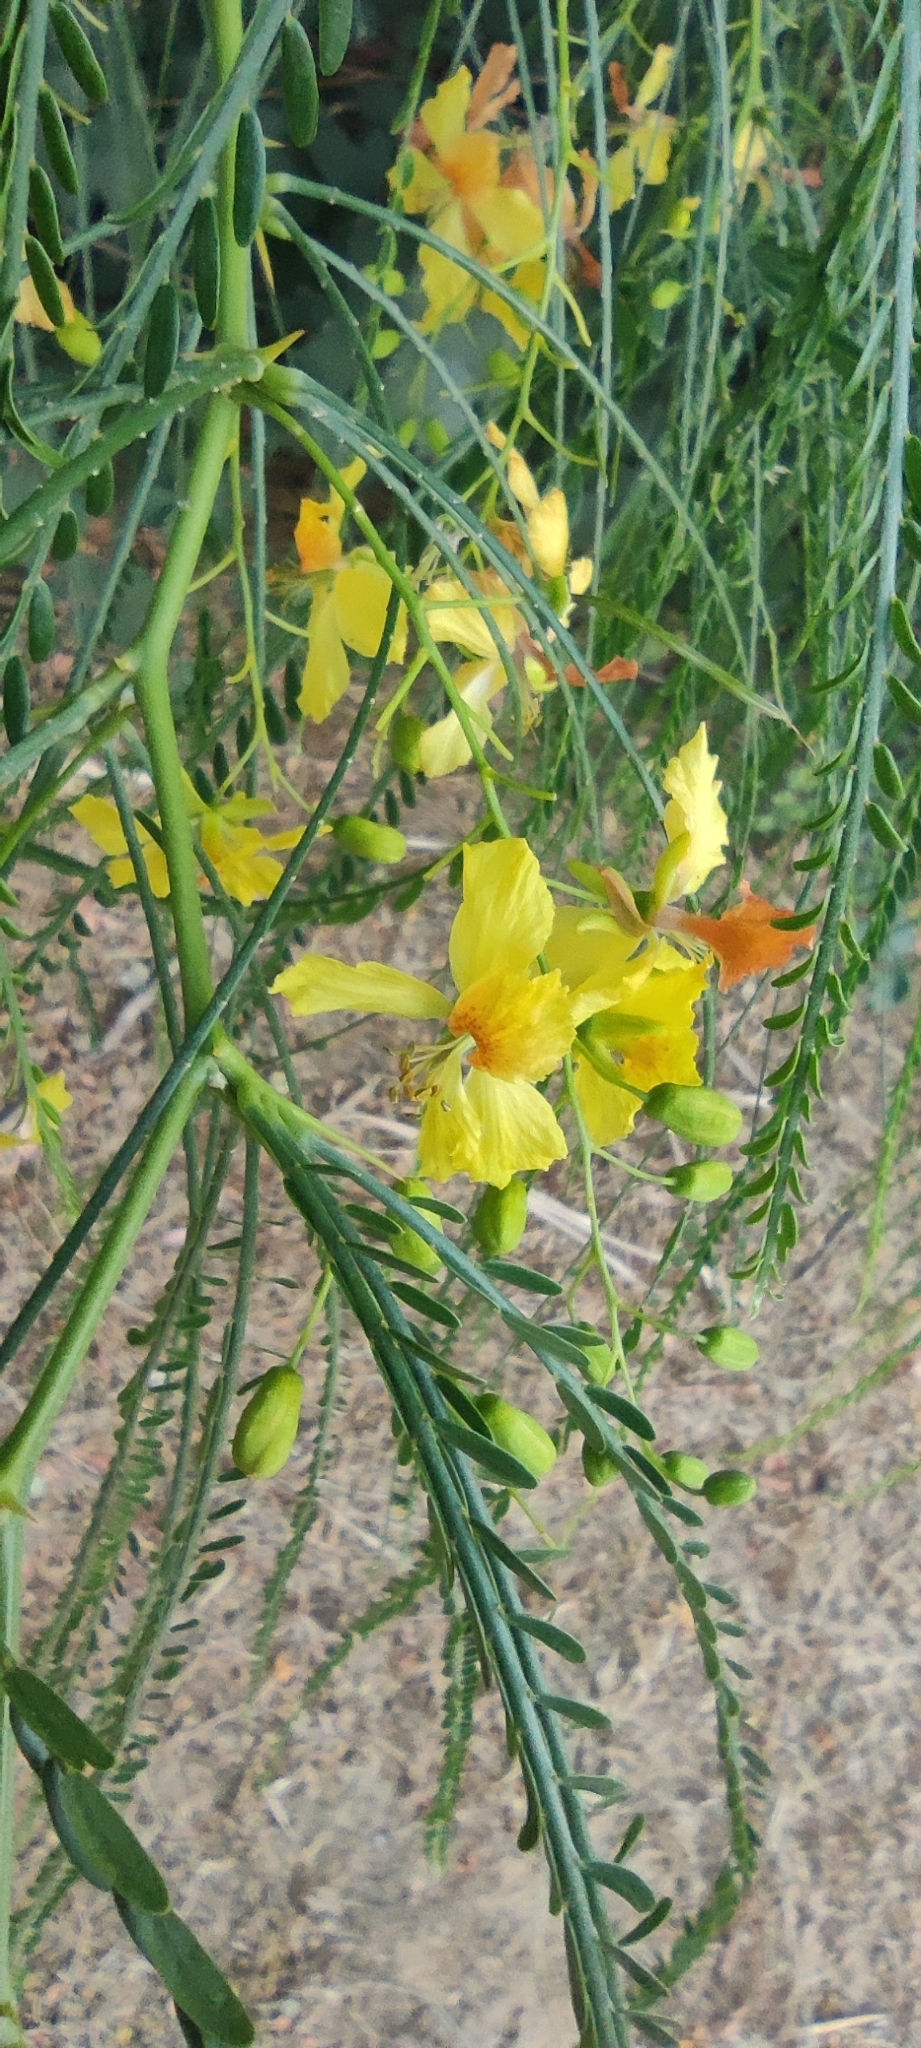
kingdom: Plantae
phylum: Tracheophyta
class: Magnoliopsida
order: Fabales
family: Fabaceae
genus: Parkinsonia
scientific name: Parkinsonia aculeata
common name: Jerusalem thorn
